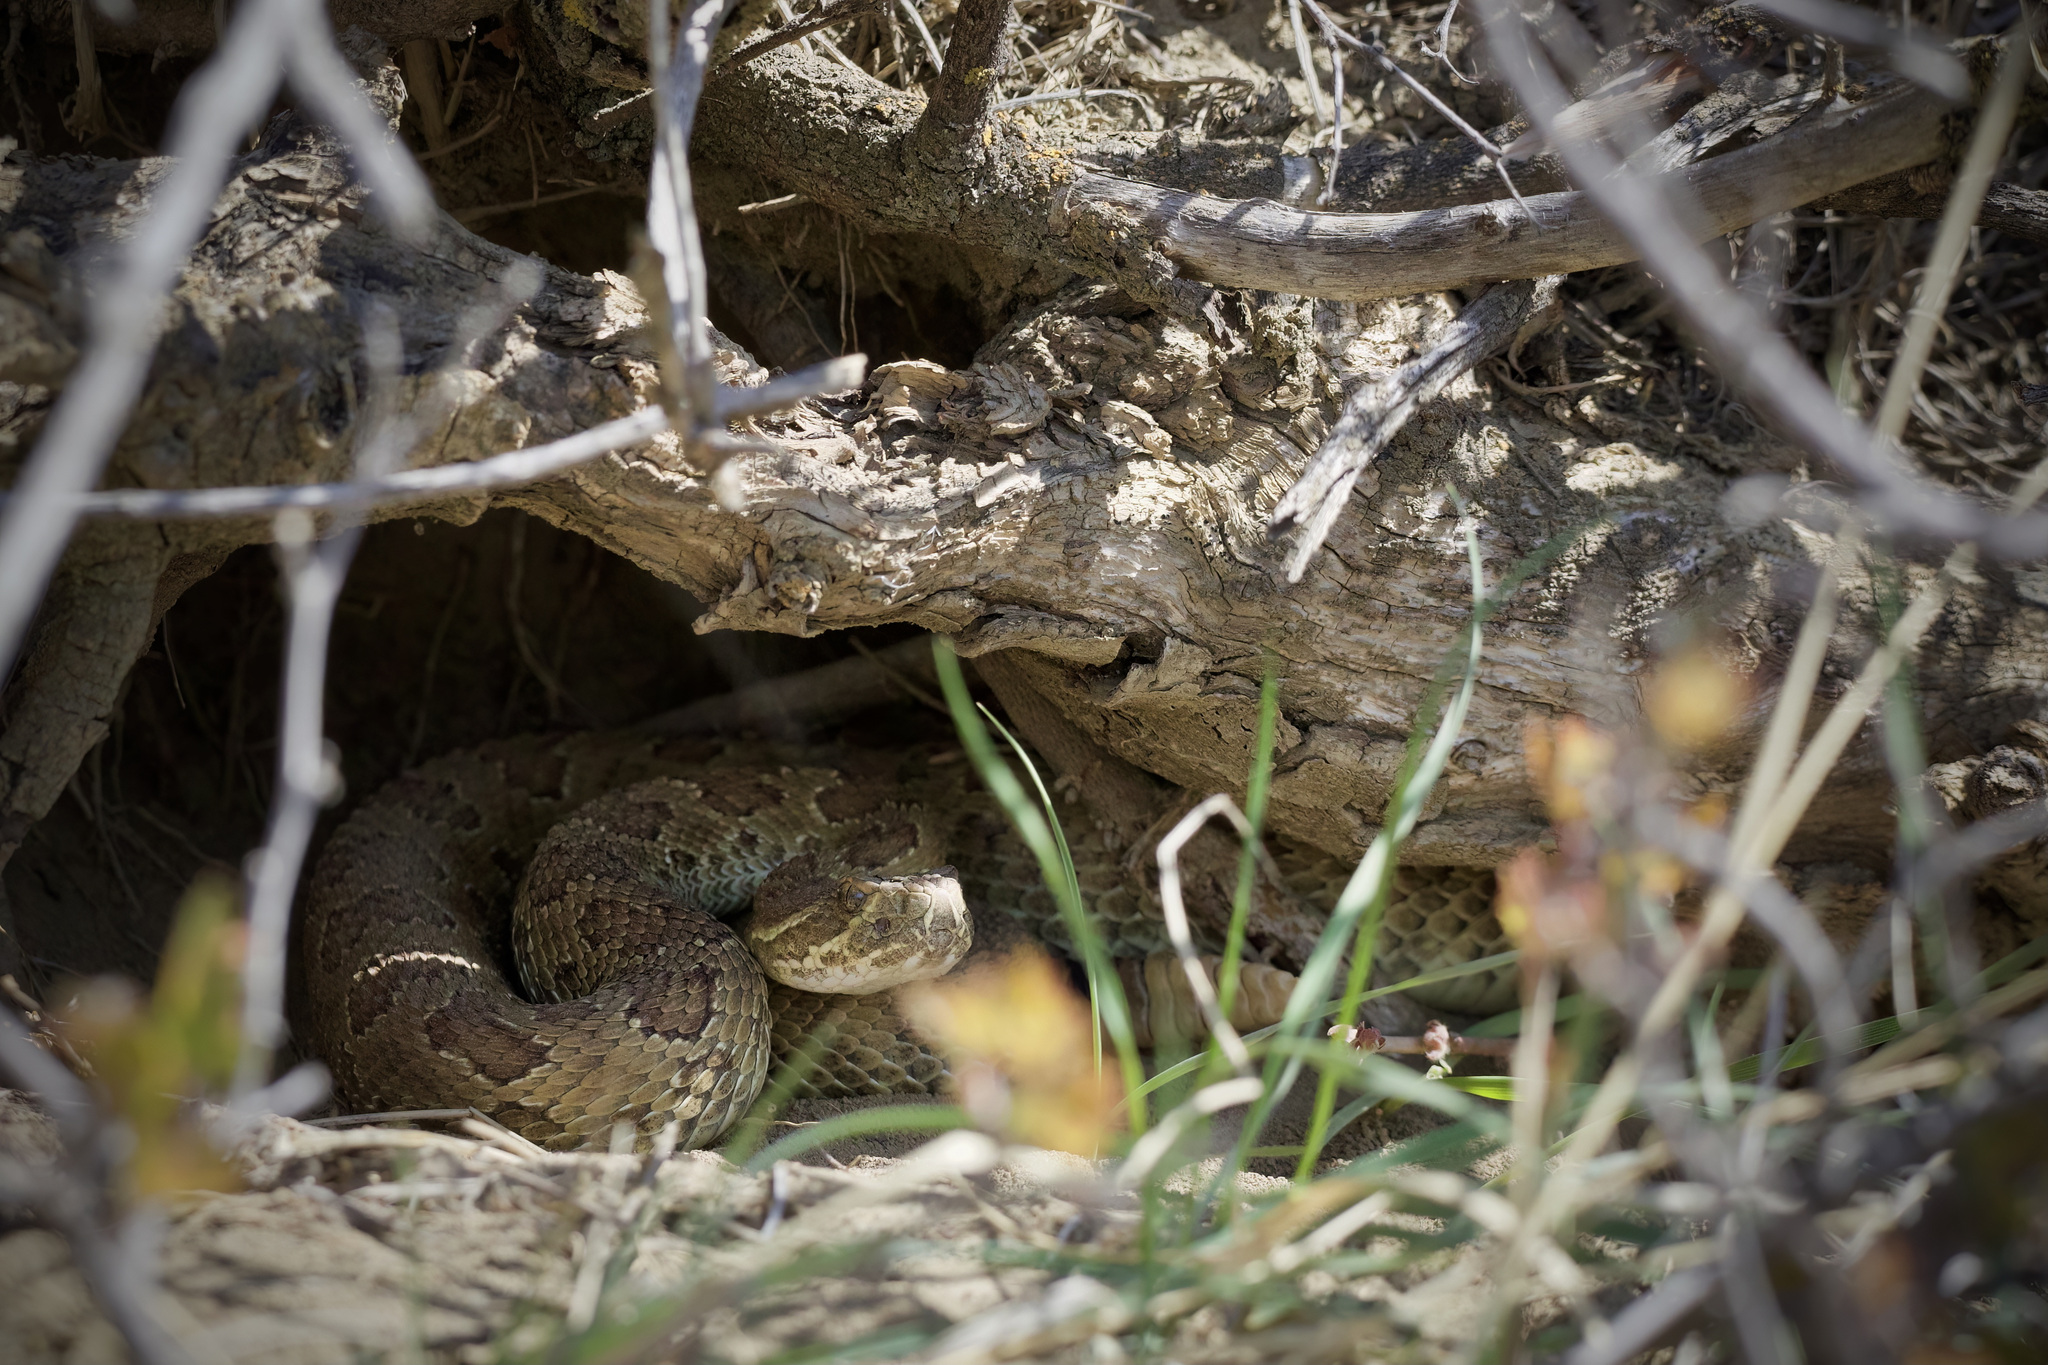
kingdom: Animalia
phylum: Chordata
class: Squamata
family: Viperidae
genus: Crotalus
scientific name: Crotalus viridis
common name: Prairie rattlesnake
